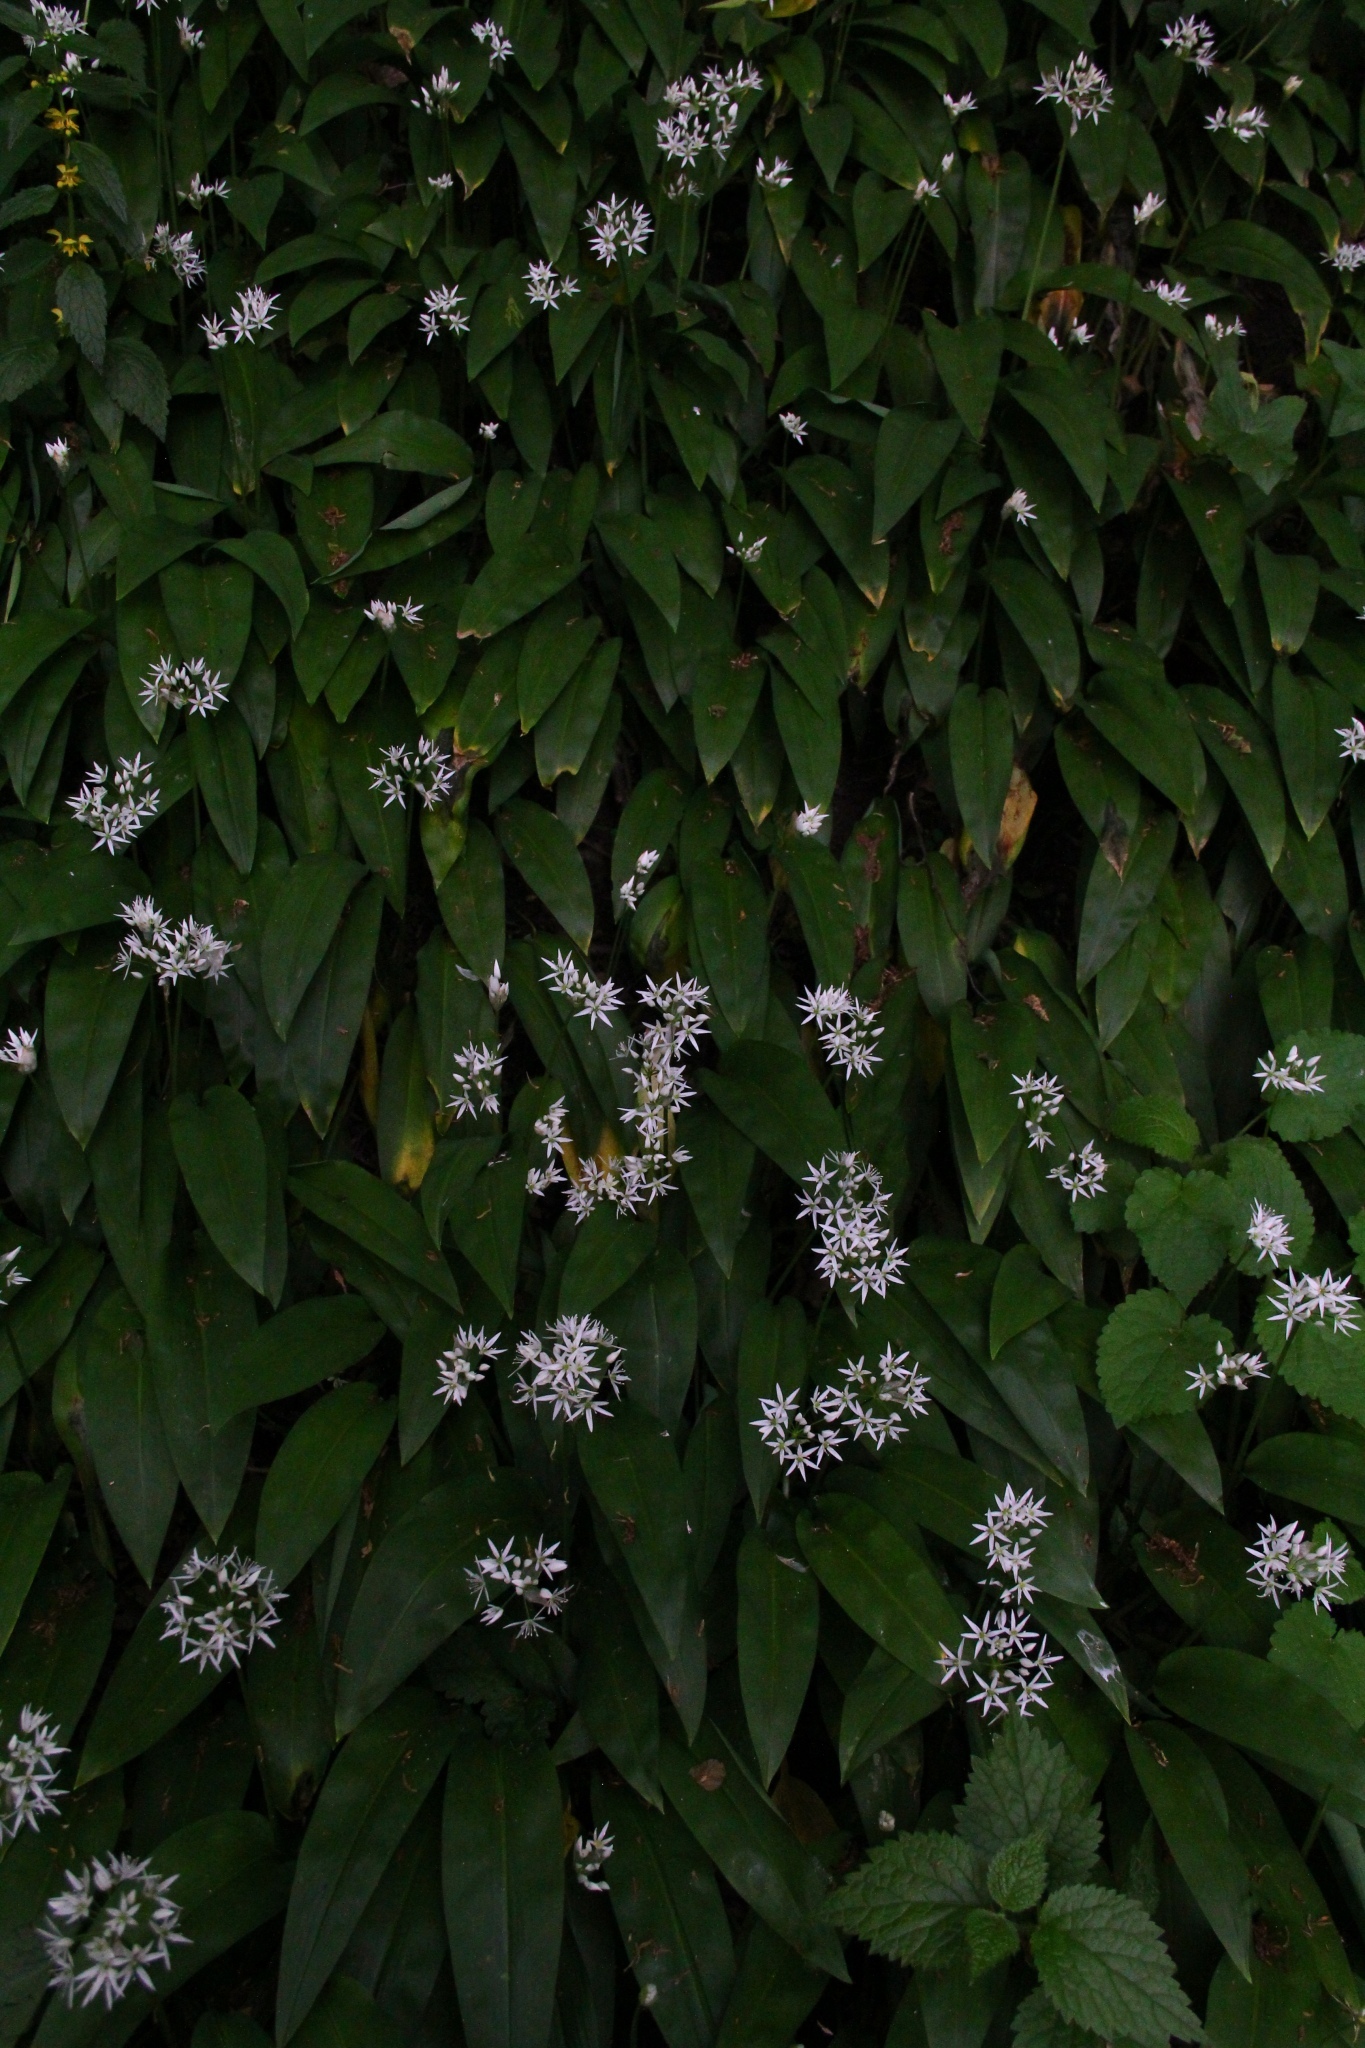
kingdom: Plantae
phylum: Tracheophyta
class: Liliopsida
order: Asparagales
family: Amaryllidaceae
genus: Allium
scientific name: Allium ursinum
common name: Ramsons
